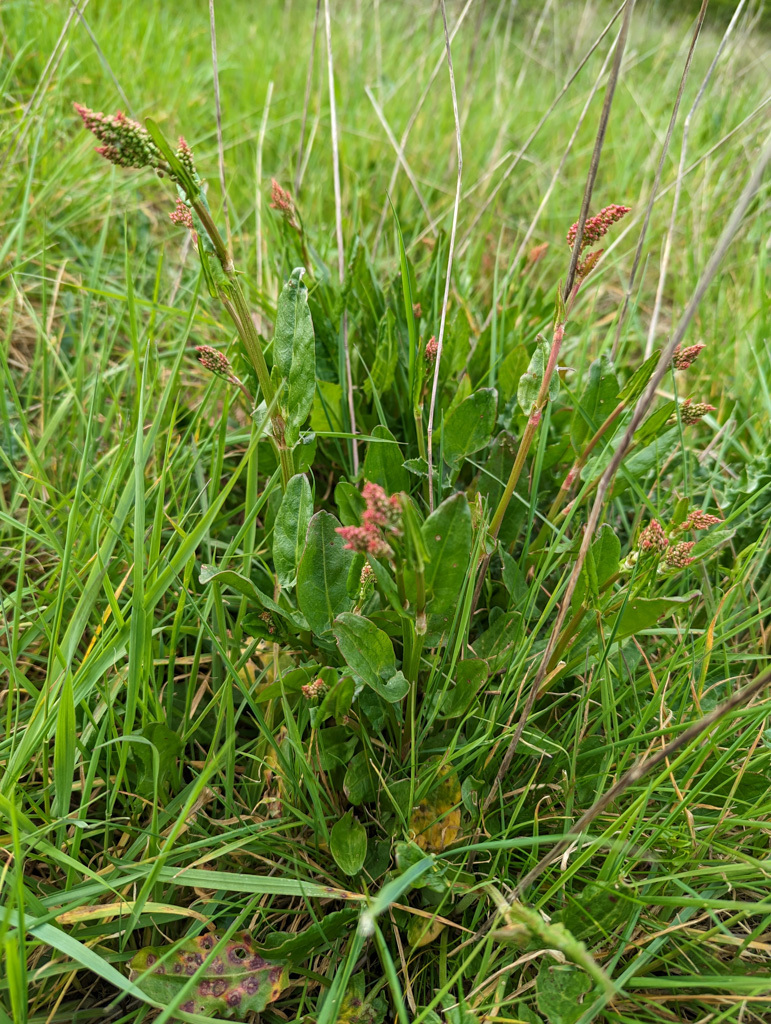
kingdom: Plantae
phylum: Tracheophyta
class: Magnoliopsida
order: Caryophyllales
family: Polygonaceae
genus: Rumex
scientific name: Rumex acetosa
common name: Garden sorrel
